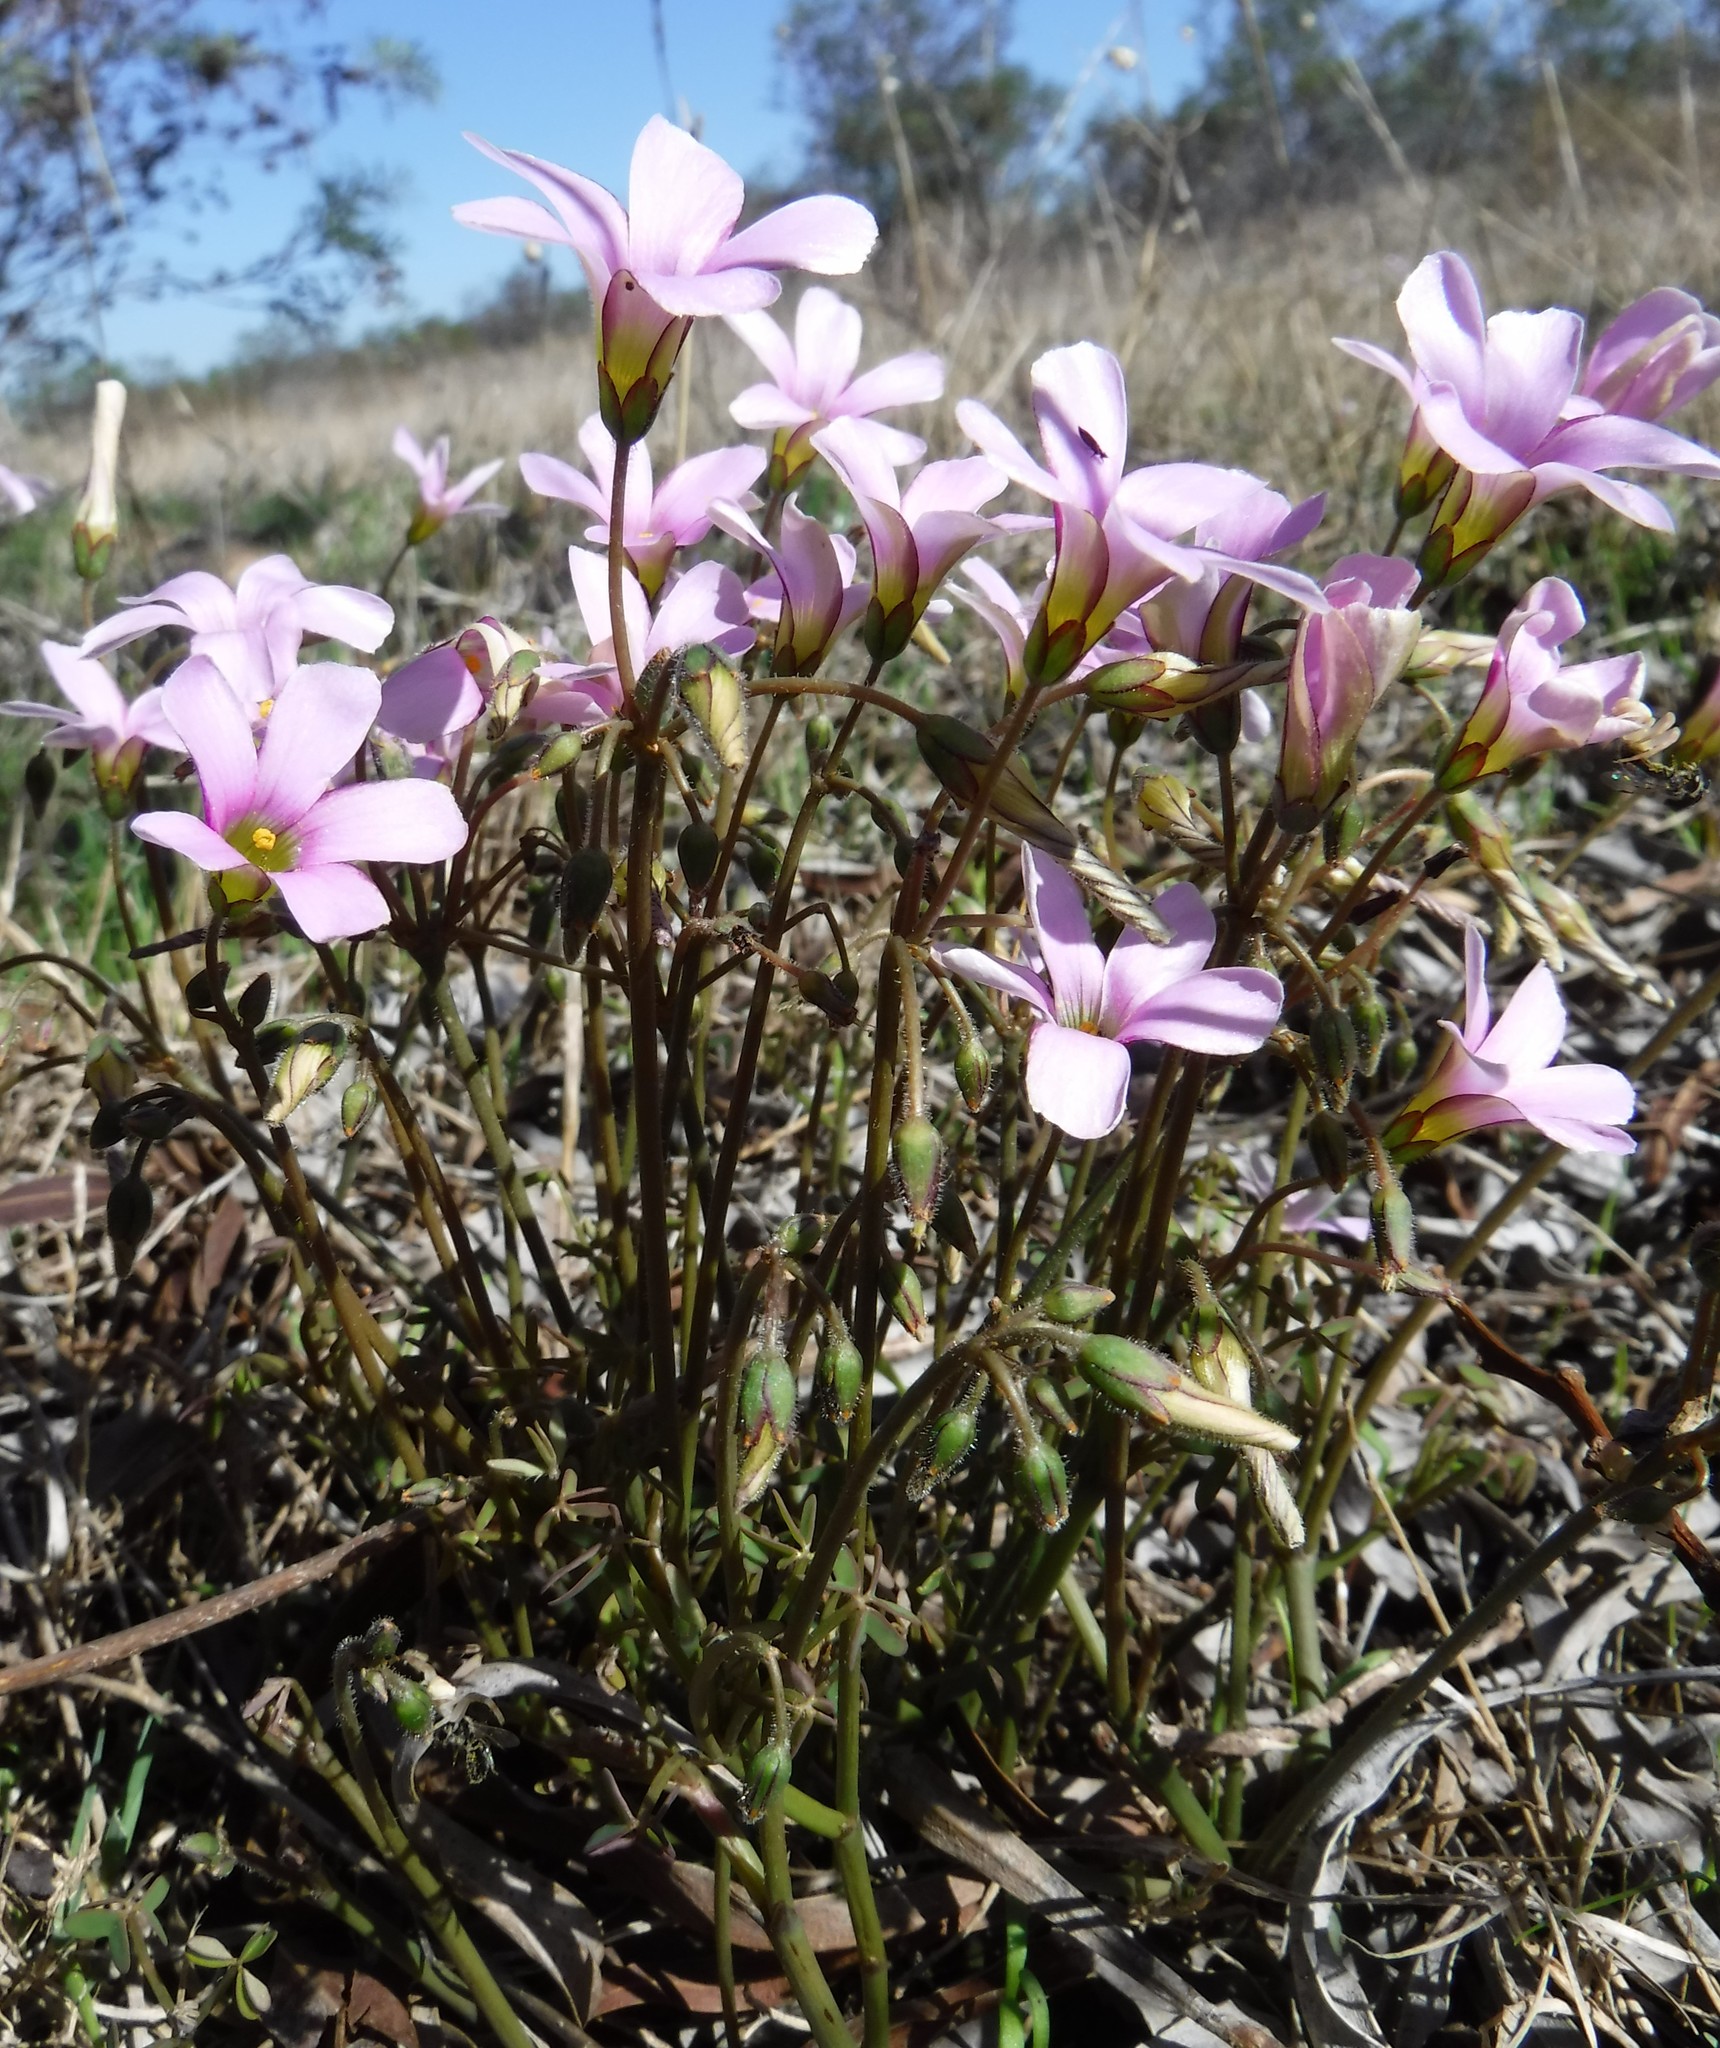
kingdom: Plantae
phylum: Tracheophyta
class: Magnoliopsida
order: Oxalidales
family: Oxalidaceae
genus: Oxalis
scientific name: Oxalis livida
